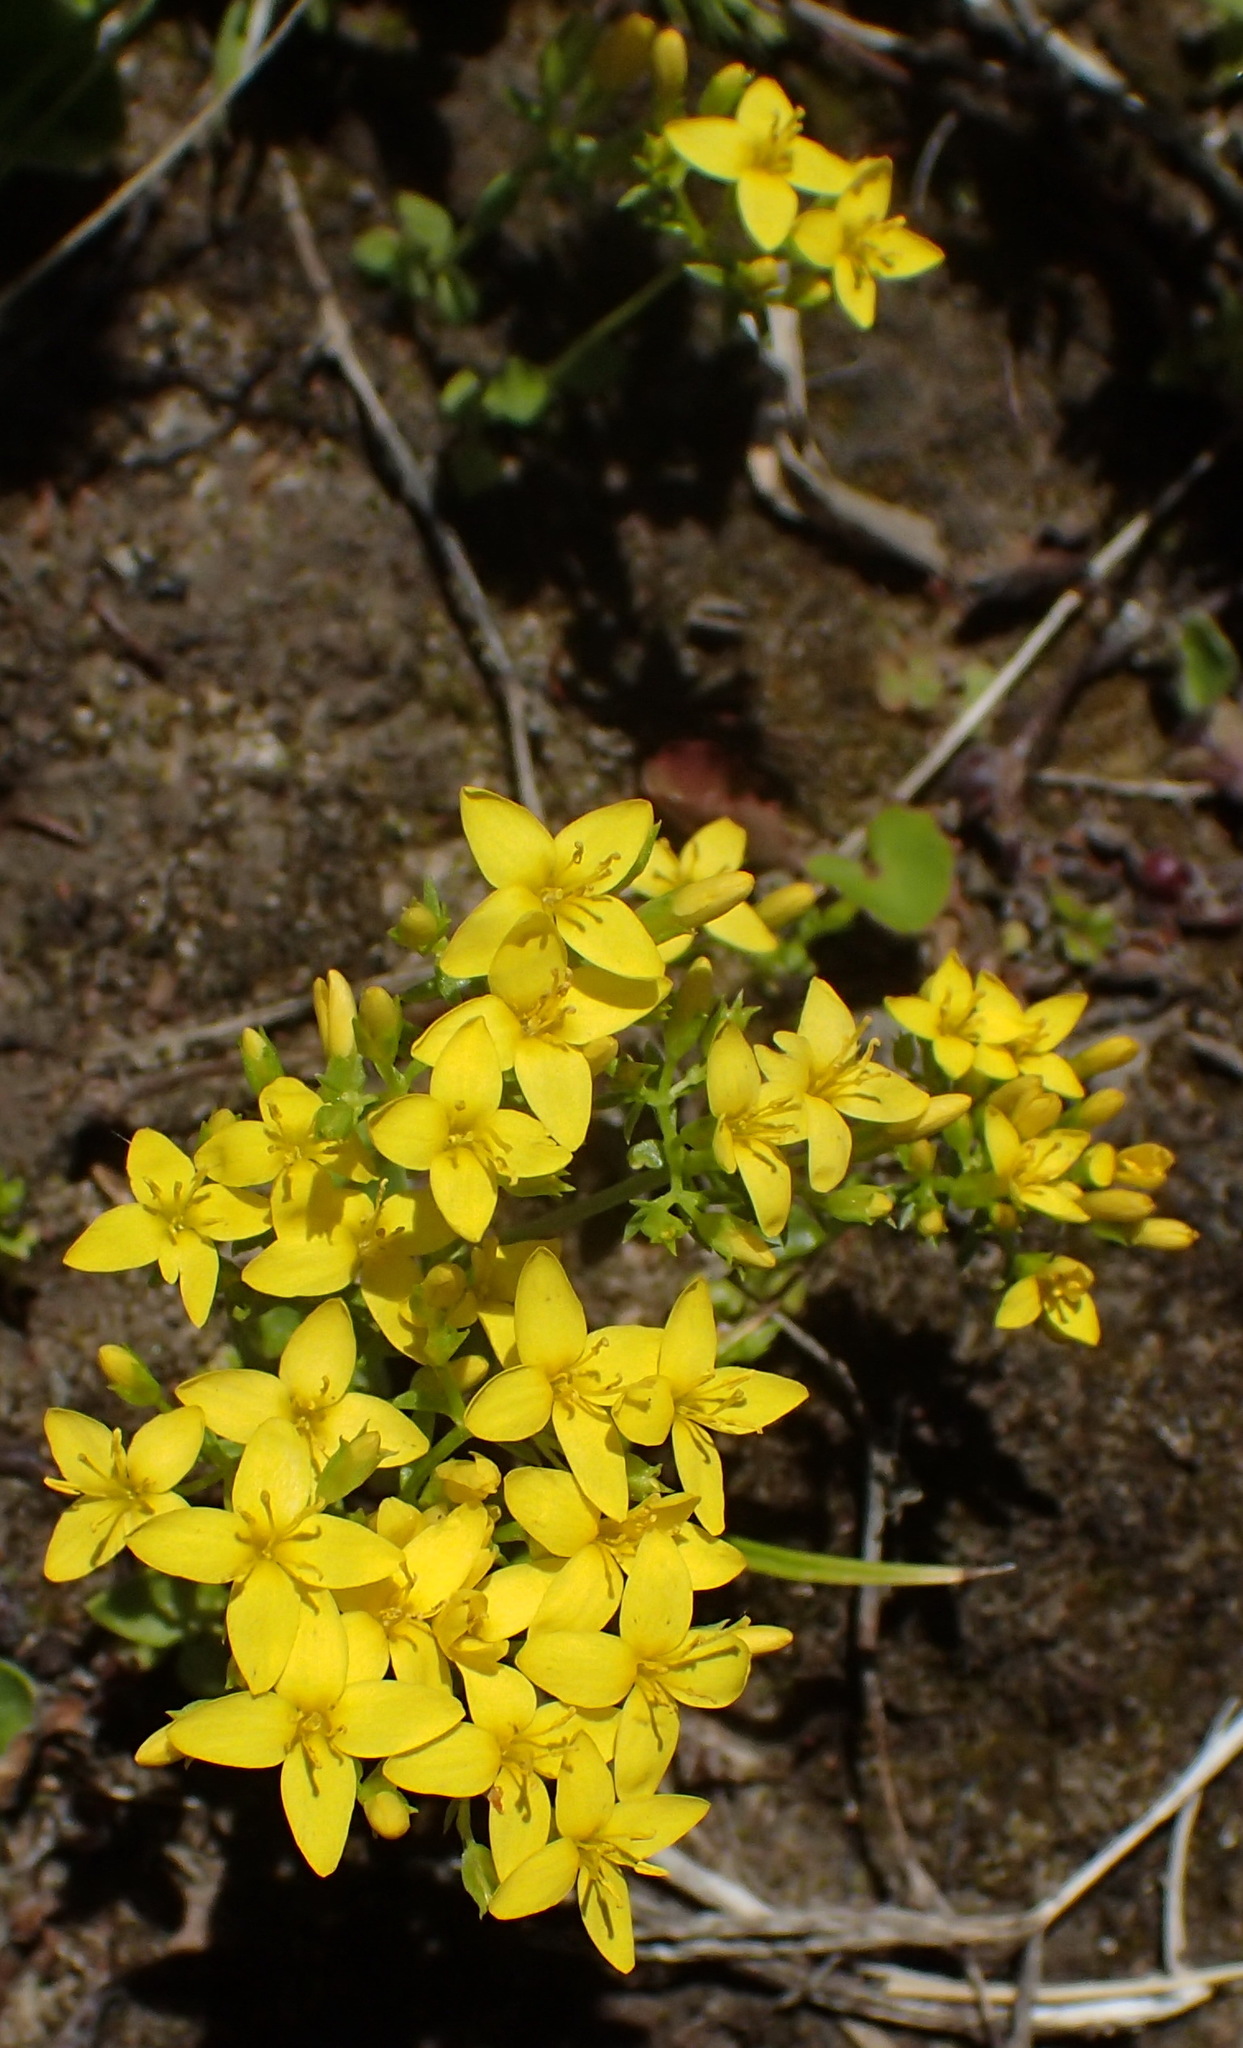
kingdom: Plantae
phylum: Tracheophyta
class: Magnoliopsida
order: Gentianales
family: Gentianaceae
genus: Sebaea
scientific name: Sebaea aurea
